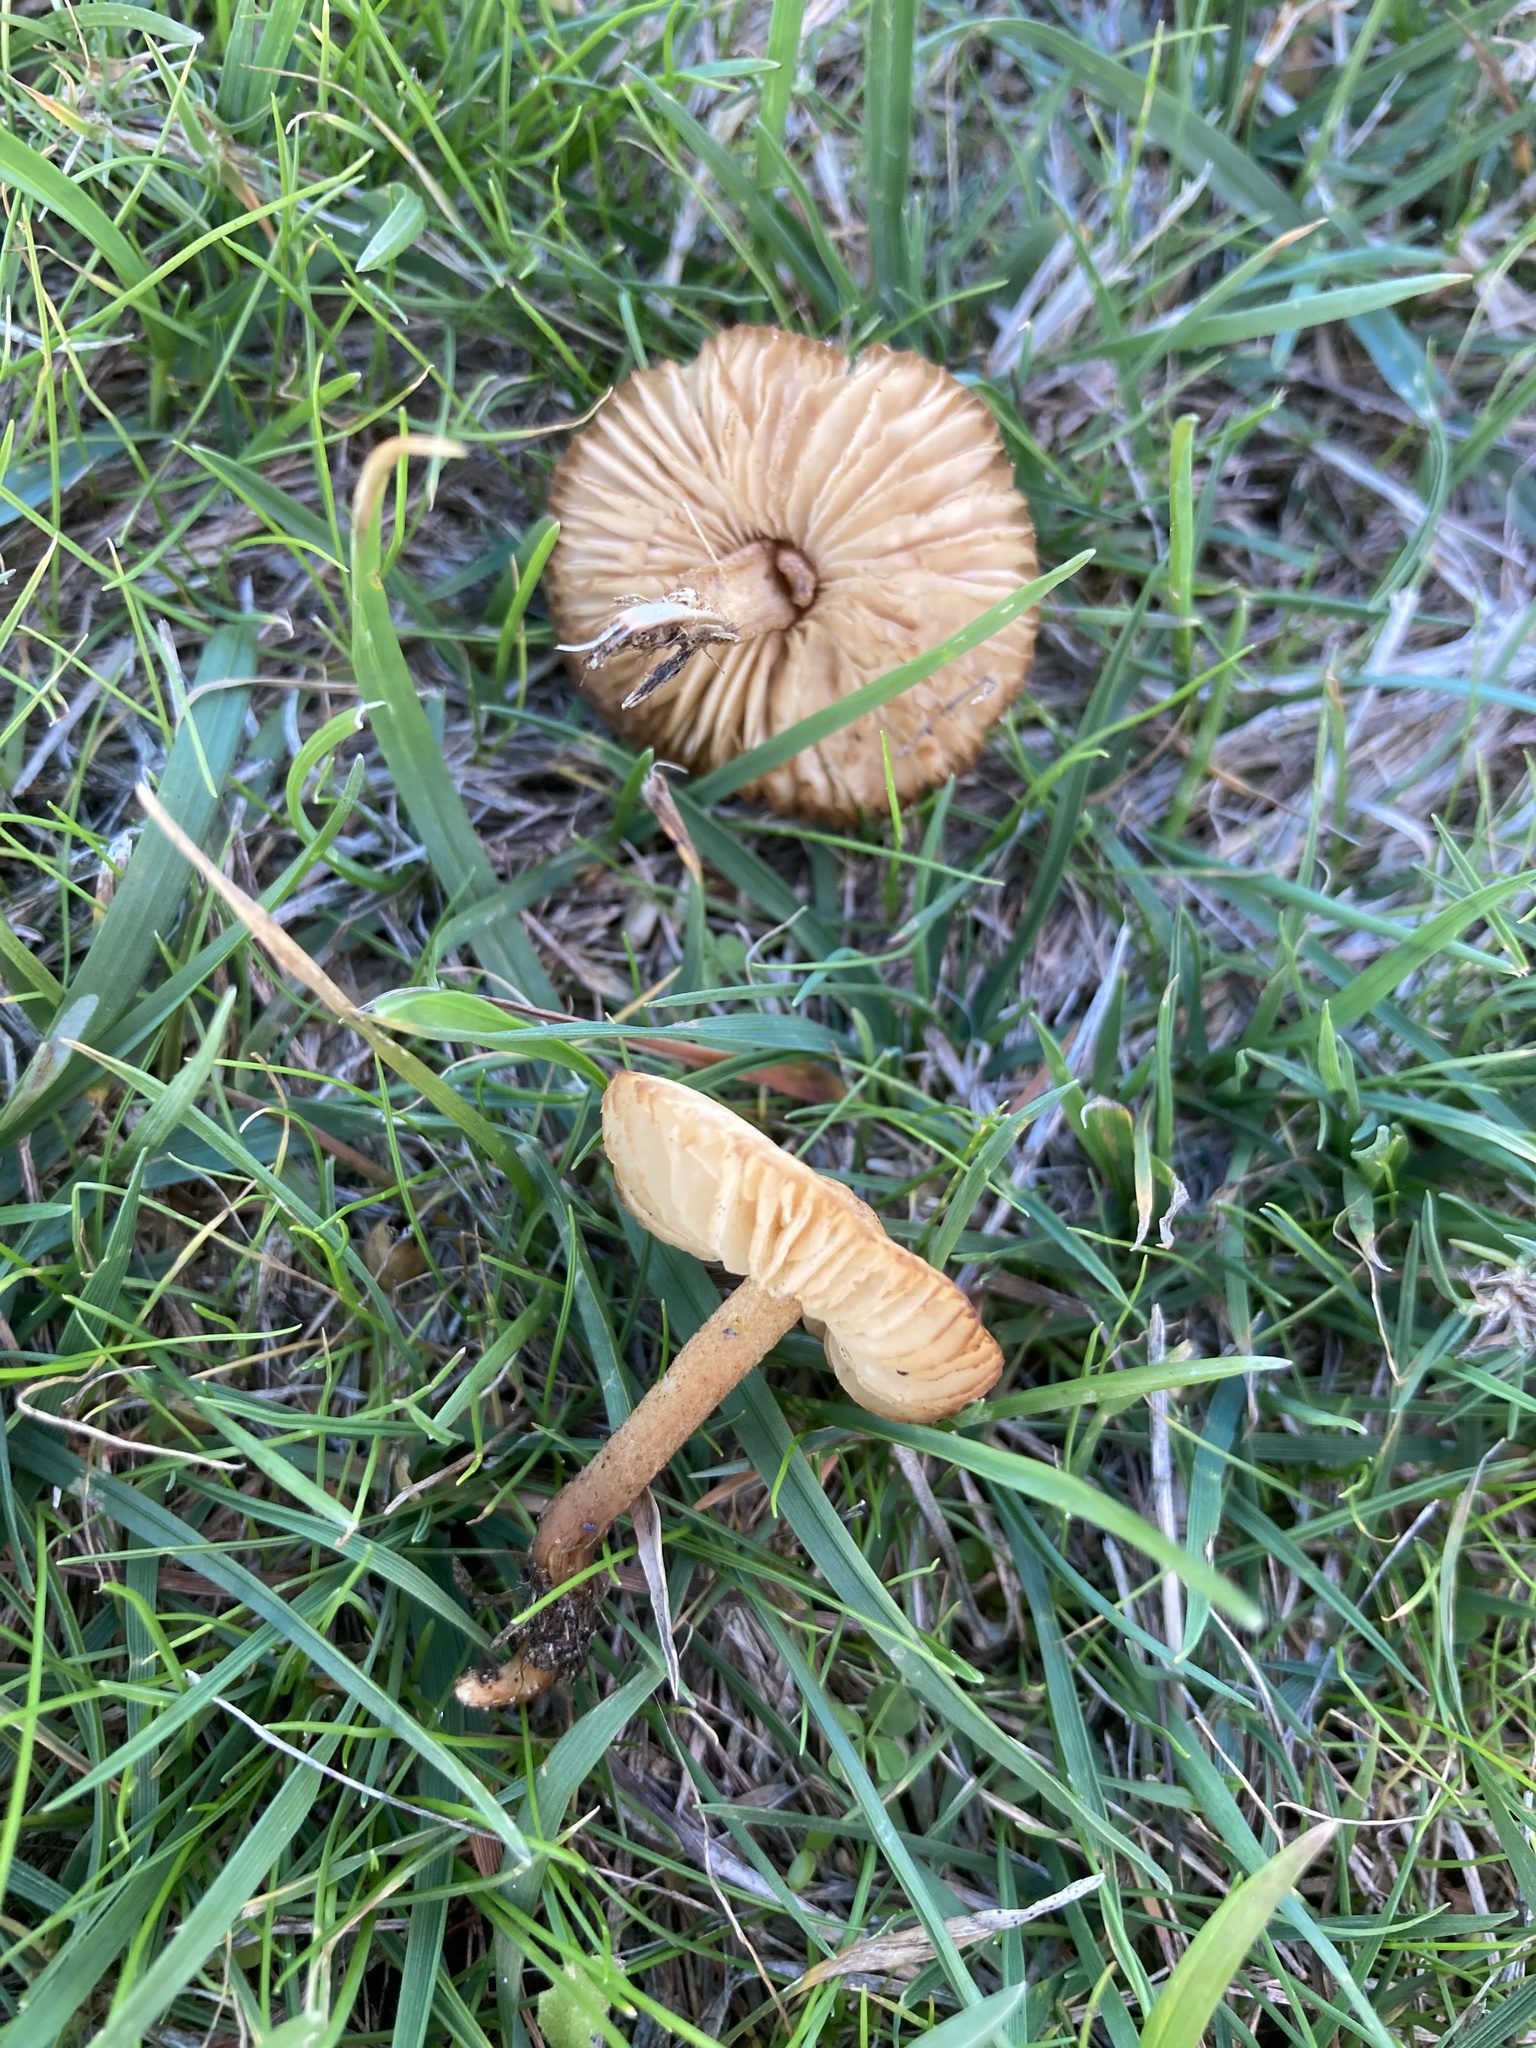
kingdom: Fungi
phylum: Basidiomycota
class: Agaricomycetes
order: Agaricales
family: Marasmiaceae
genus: Marasmius
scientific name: Marasmius oreades
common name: Fairy ring champignon
